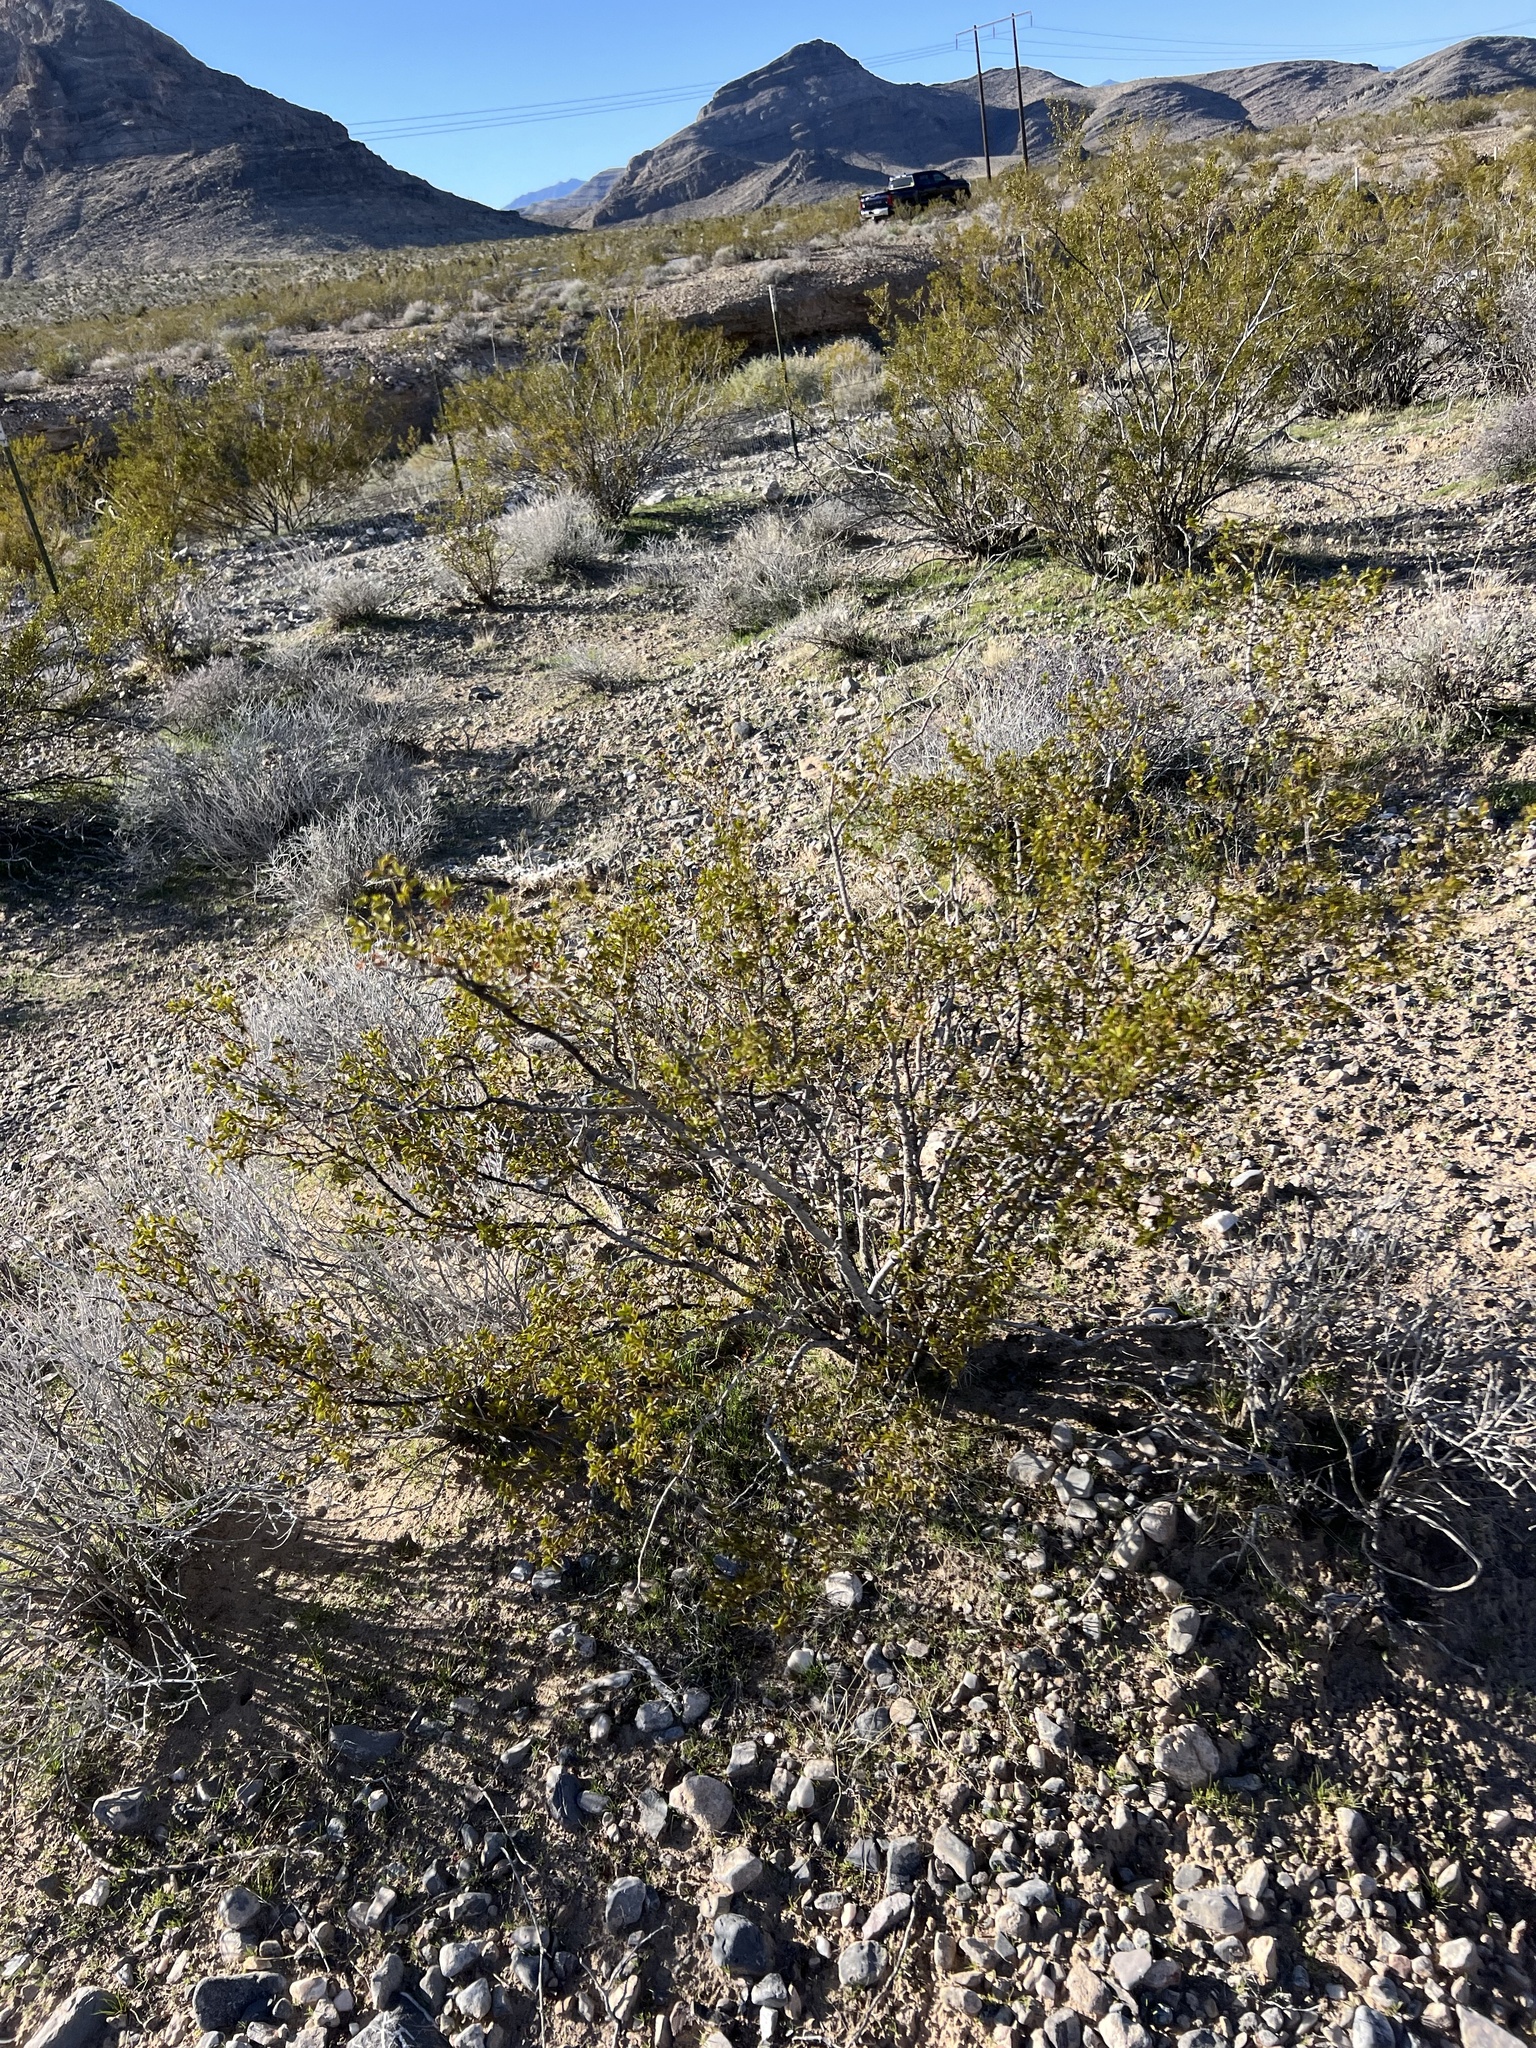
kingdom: Plantae
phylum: Tracheophyta
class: Magnoliopsida
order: Zygophyllales
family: Zygophyllaceae
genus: Larrea
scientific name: Larrea tridentata
